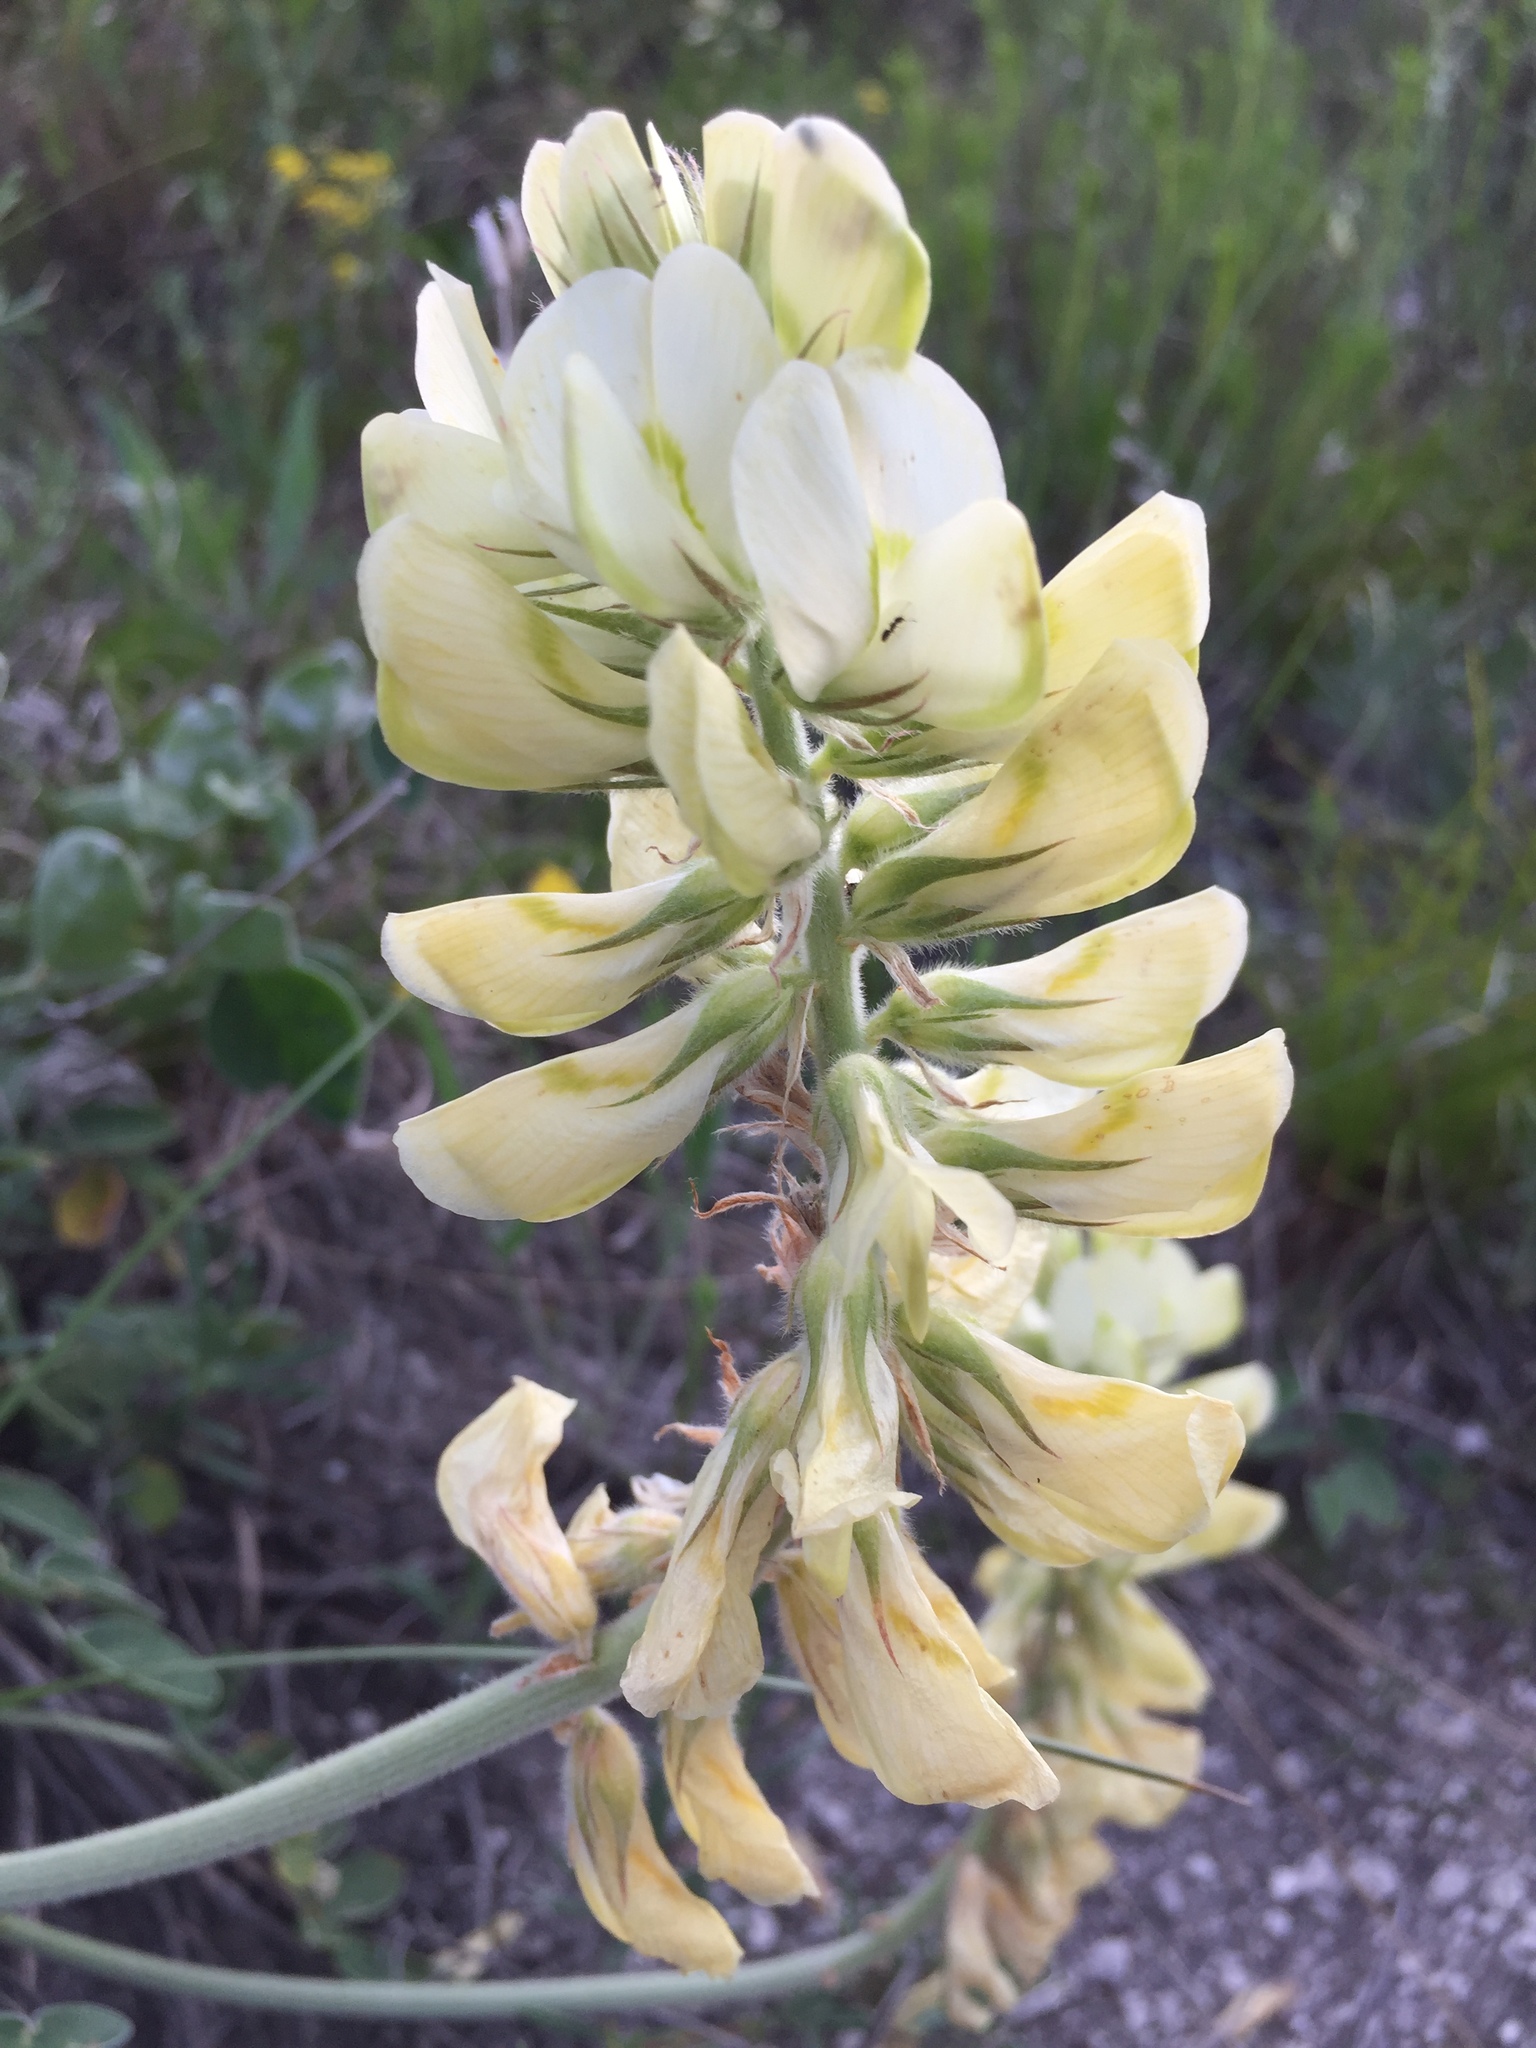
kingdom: Plantae
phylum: Tracheophyta
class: Magnoliopsida
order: Fabales
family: Fabaceae
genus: Hedysarum
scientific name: Hedysarum grandiflorum
